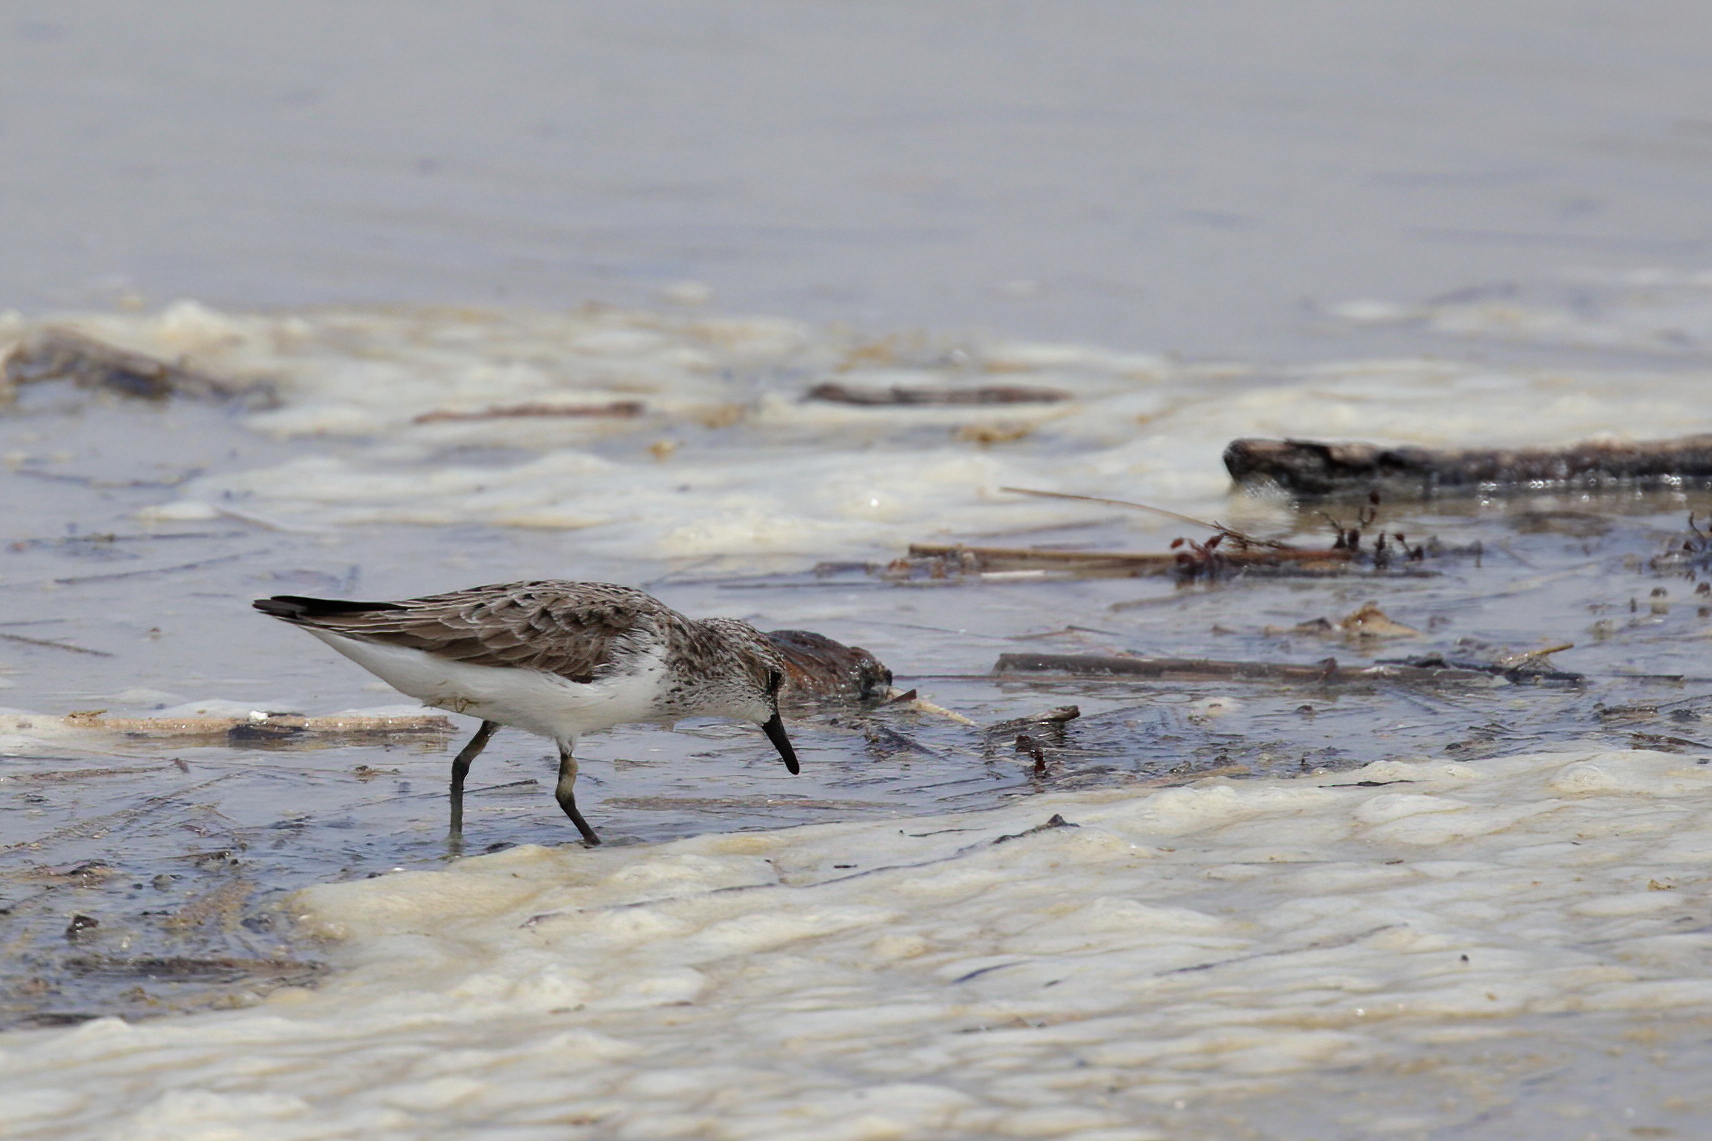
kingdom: Animalia
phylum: Chordata
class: Aves
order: Charadriiformes
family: Scolopacidae
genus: Calidris
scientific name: Calidris pusilla
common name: Semipalmated sandpiper
